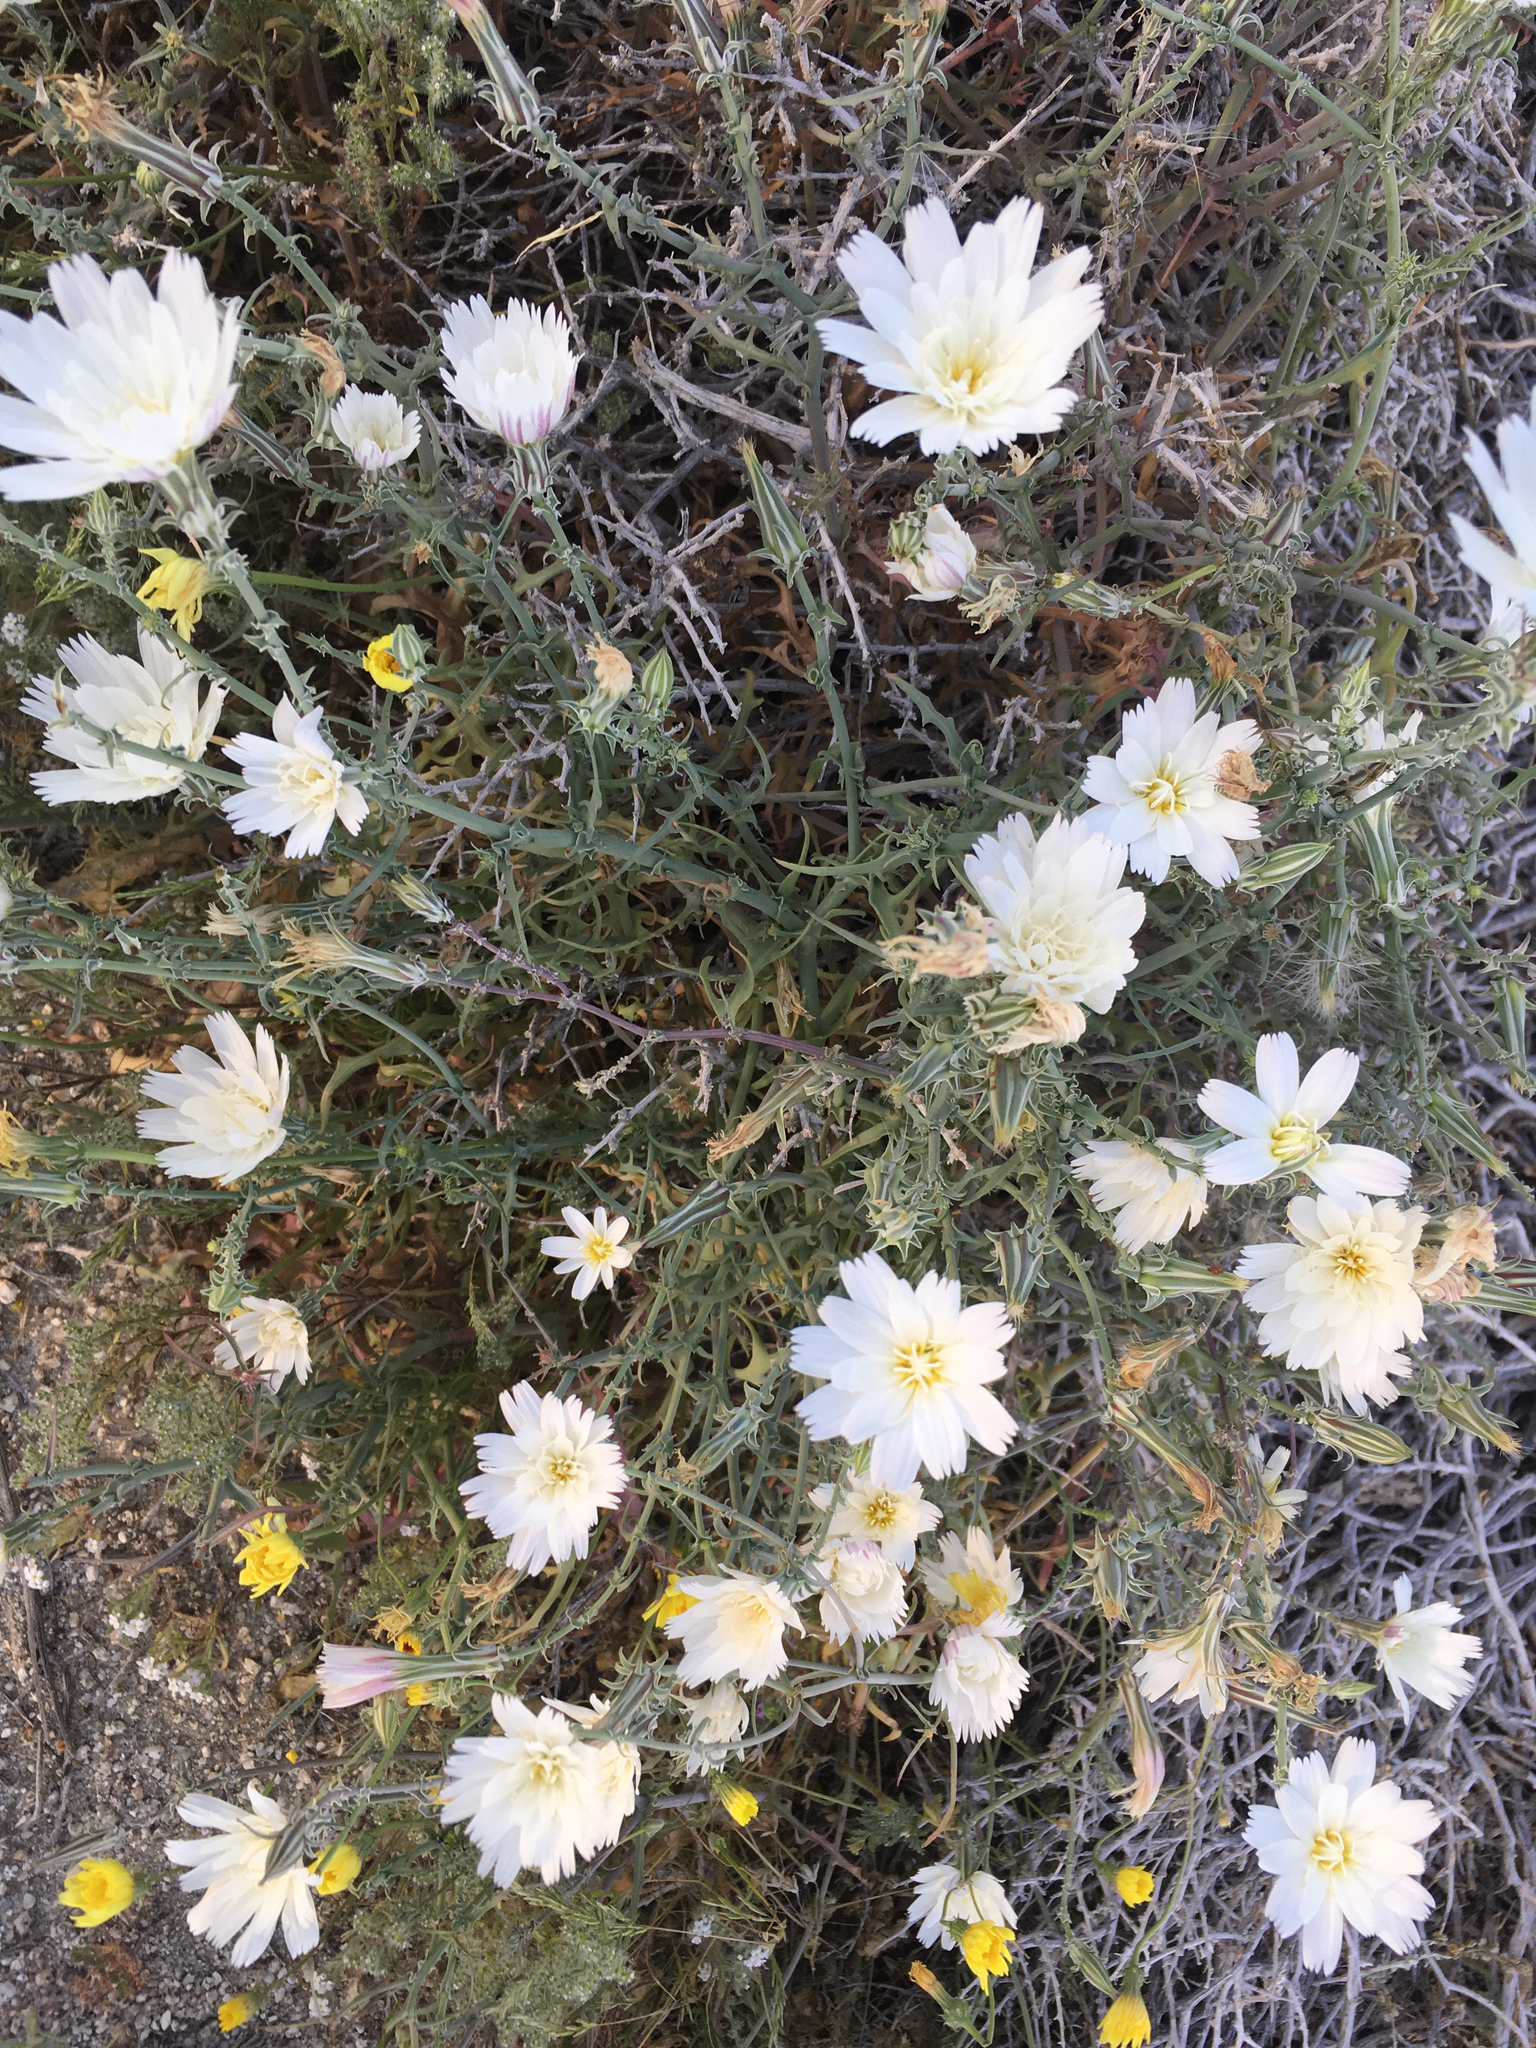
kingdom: Plantae
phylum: Tracheophyta
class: Magnoliopsida
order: Asterales
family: Asteraceae
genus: Rafinesquia
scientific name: Rafinesquia neomexicana
